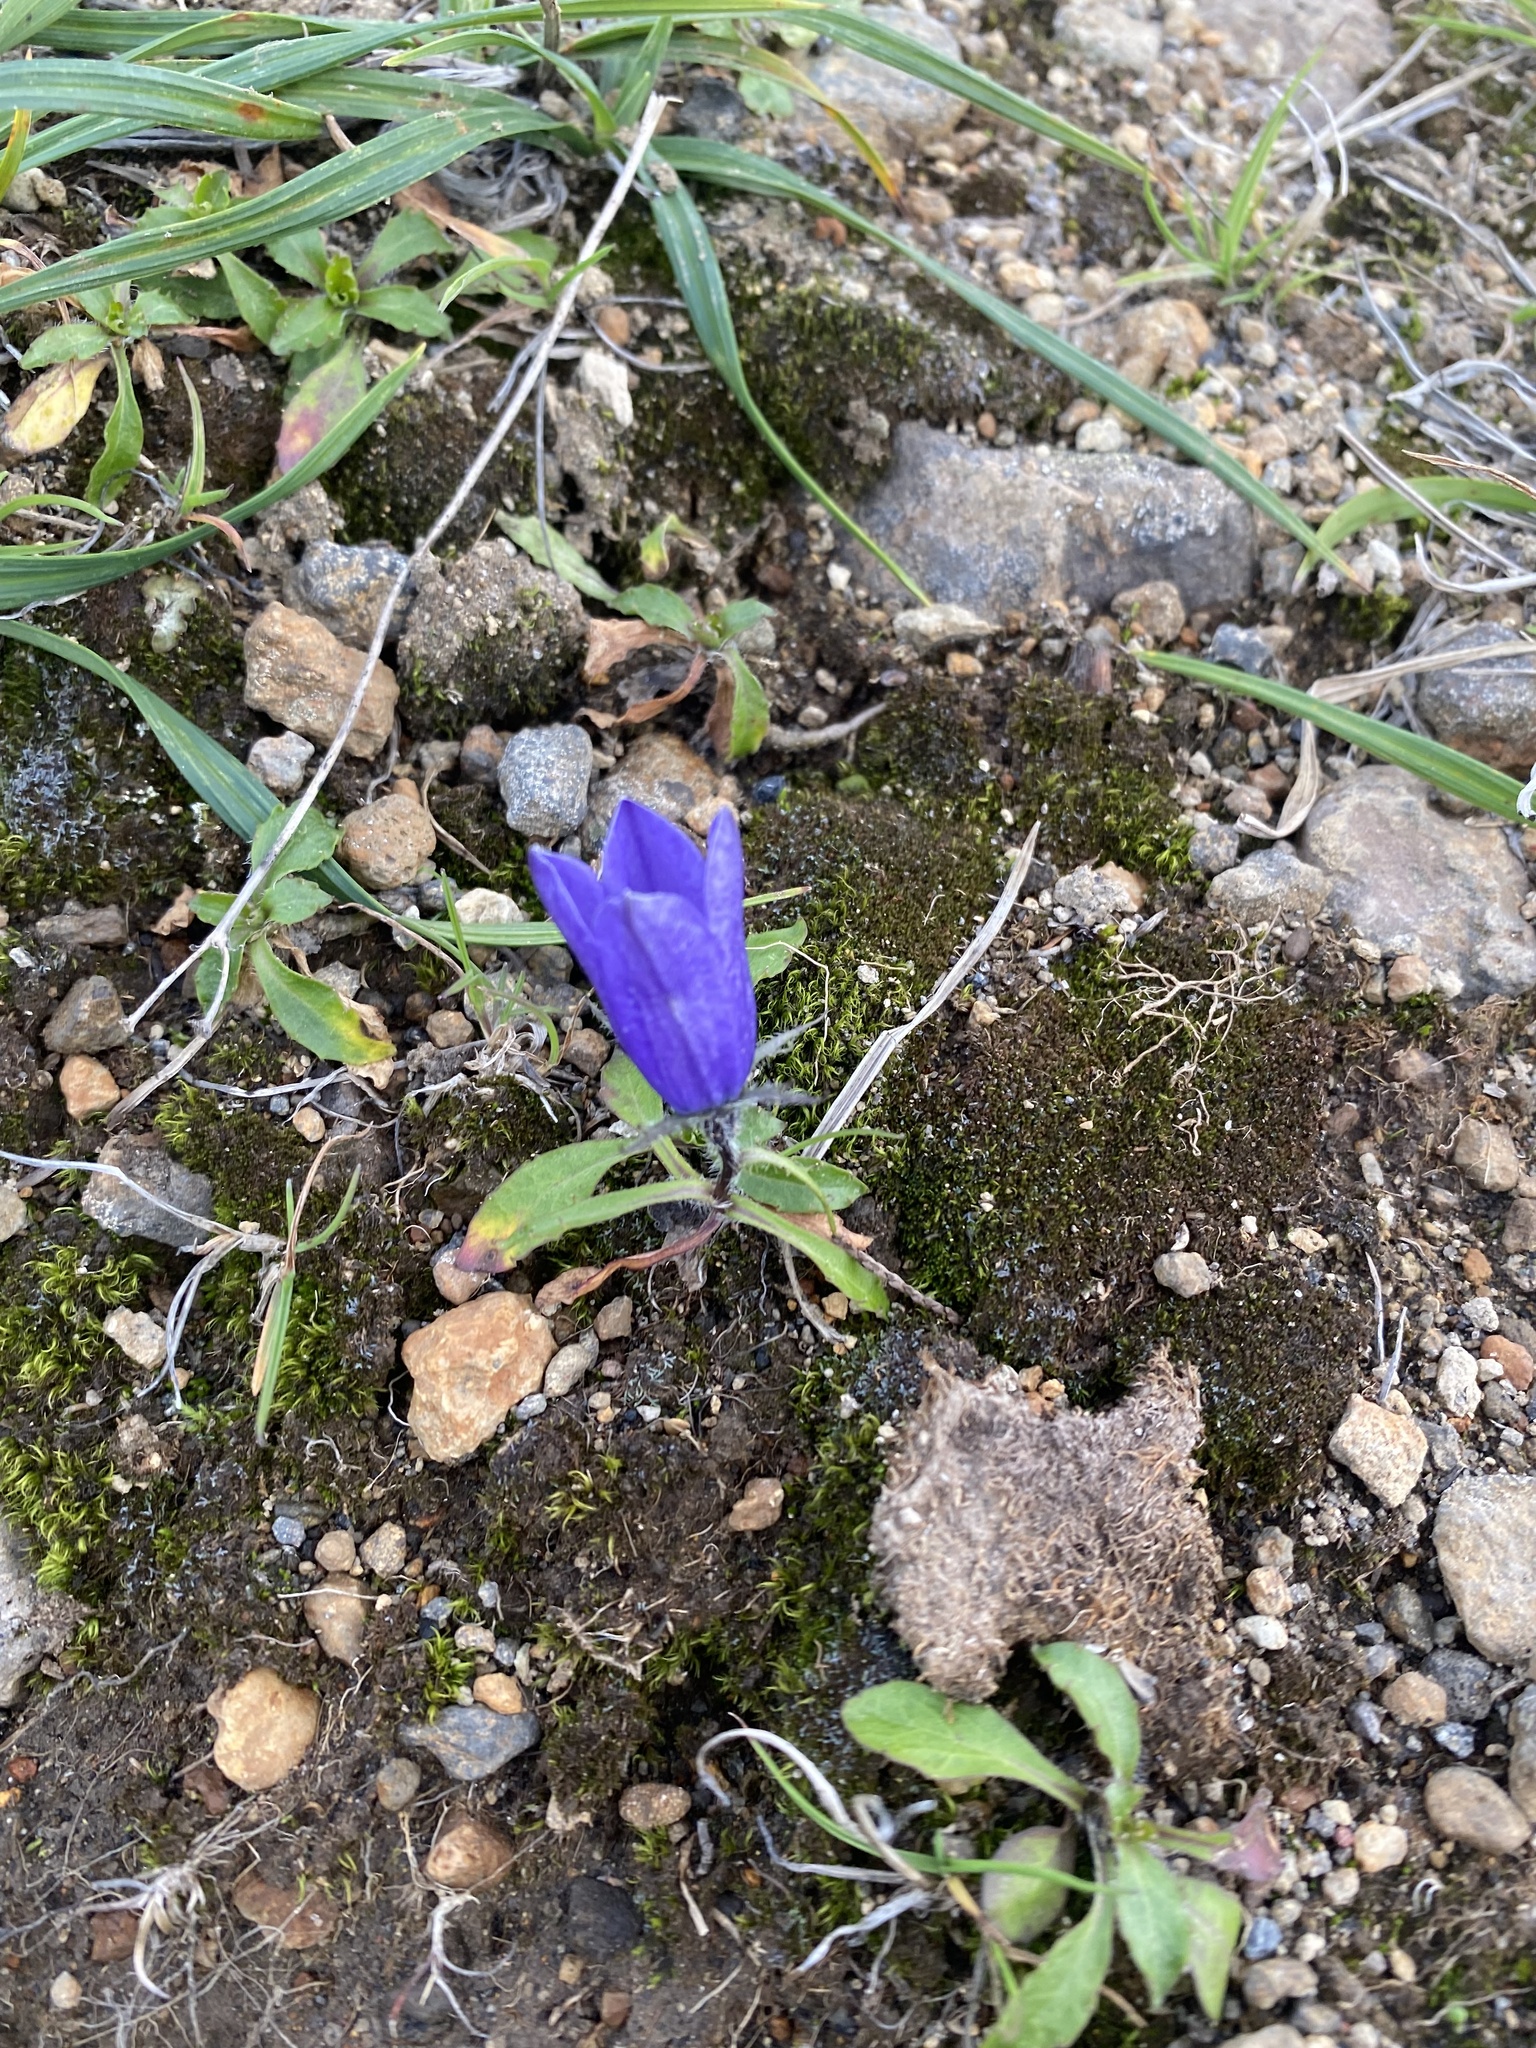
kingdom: Plantae
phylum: Tracheophyta
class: Magnoliopsida
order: Asterales
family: Campanulaceae
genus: Campanula
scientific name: Campanula lasiocarpa
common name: Mountain harebell
